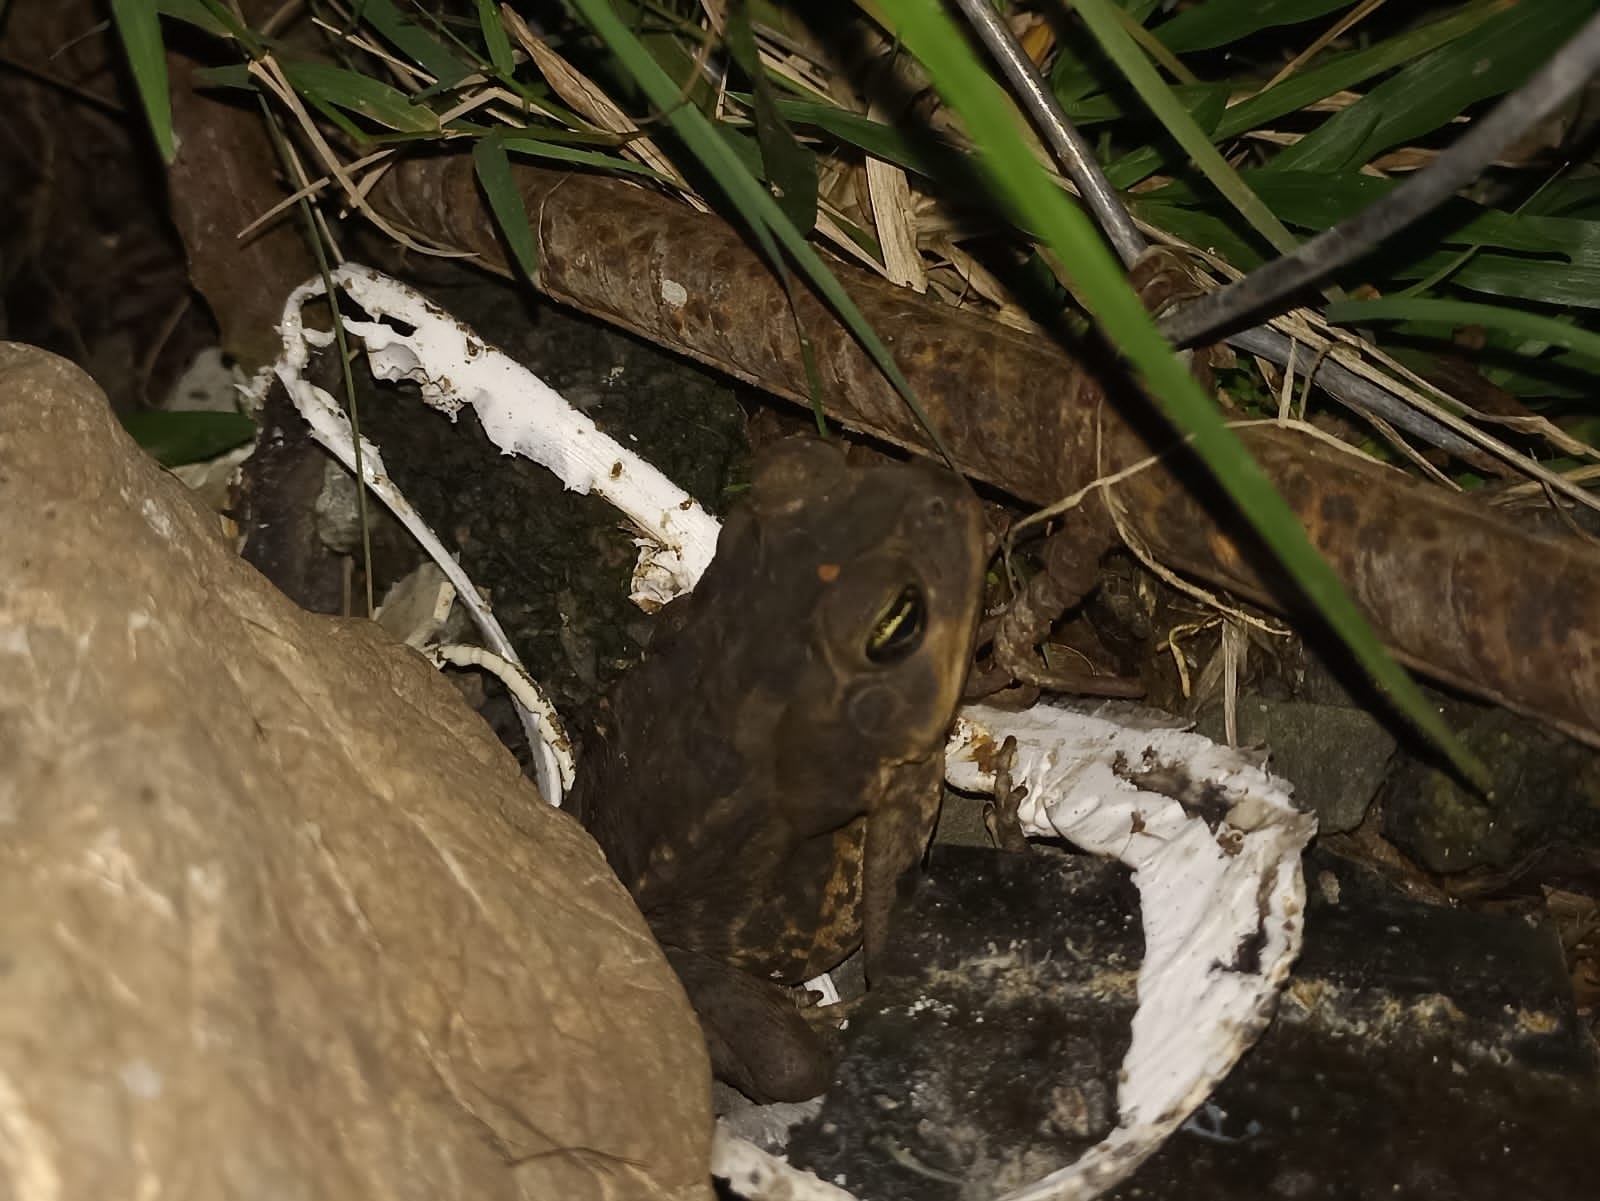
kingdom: Animalia
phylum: Chordata
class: Amphibia
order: Anura
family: Bufonidae
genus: Rhinella
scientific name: Rhinella horribilis
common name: Mesoamerican cane toad
